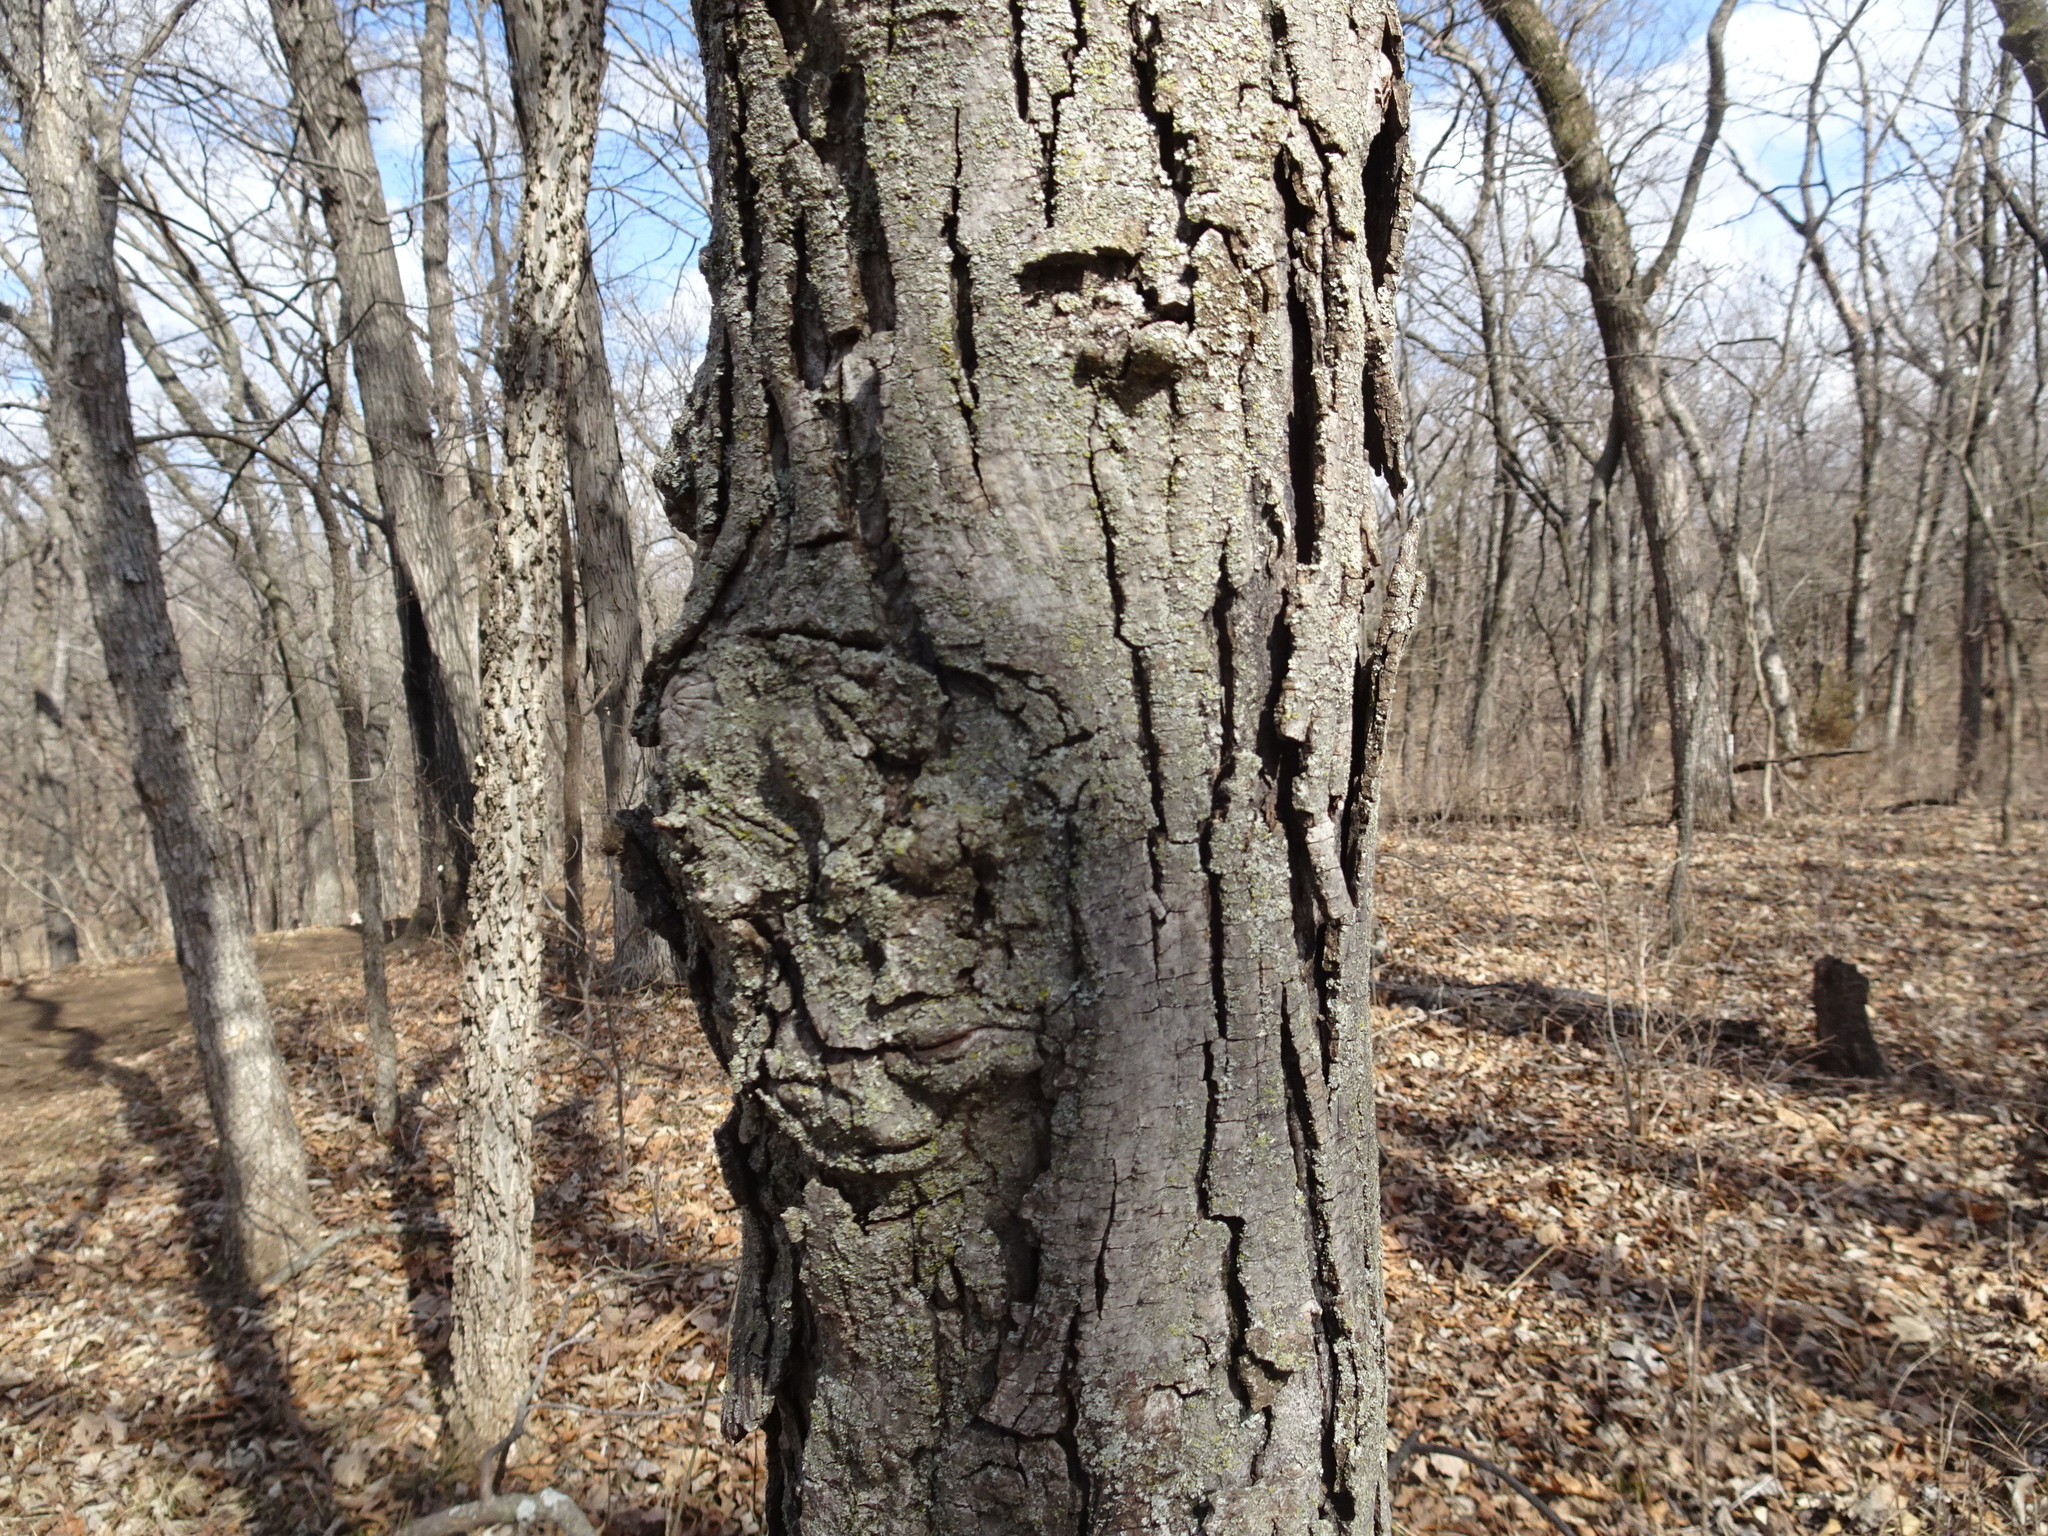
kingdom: Plantae
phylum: Tracheophyta
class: Magnoliopsida
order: Fagales
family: Juglandaceae
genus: Carya
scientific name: Carya ovata
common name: Shagbark hickory
